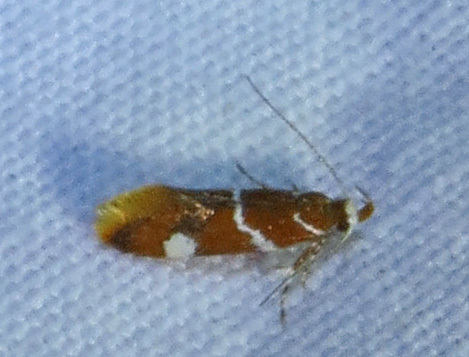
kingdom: Animalia
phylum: Arthropoda
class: Insecta
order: Lepidoptera
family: Oecophoridae
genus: Promalactis
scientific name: Promalactis suzukiella
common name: Moth
